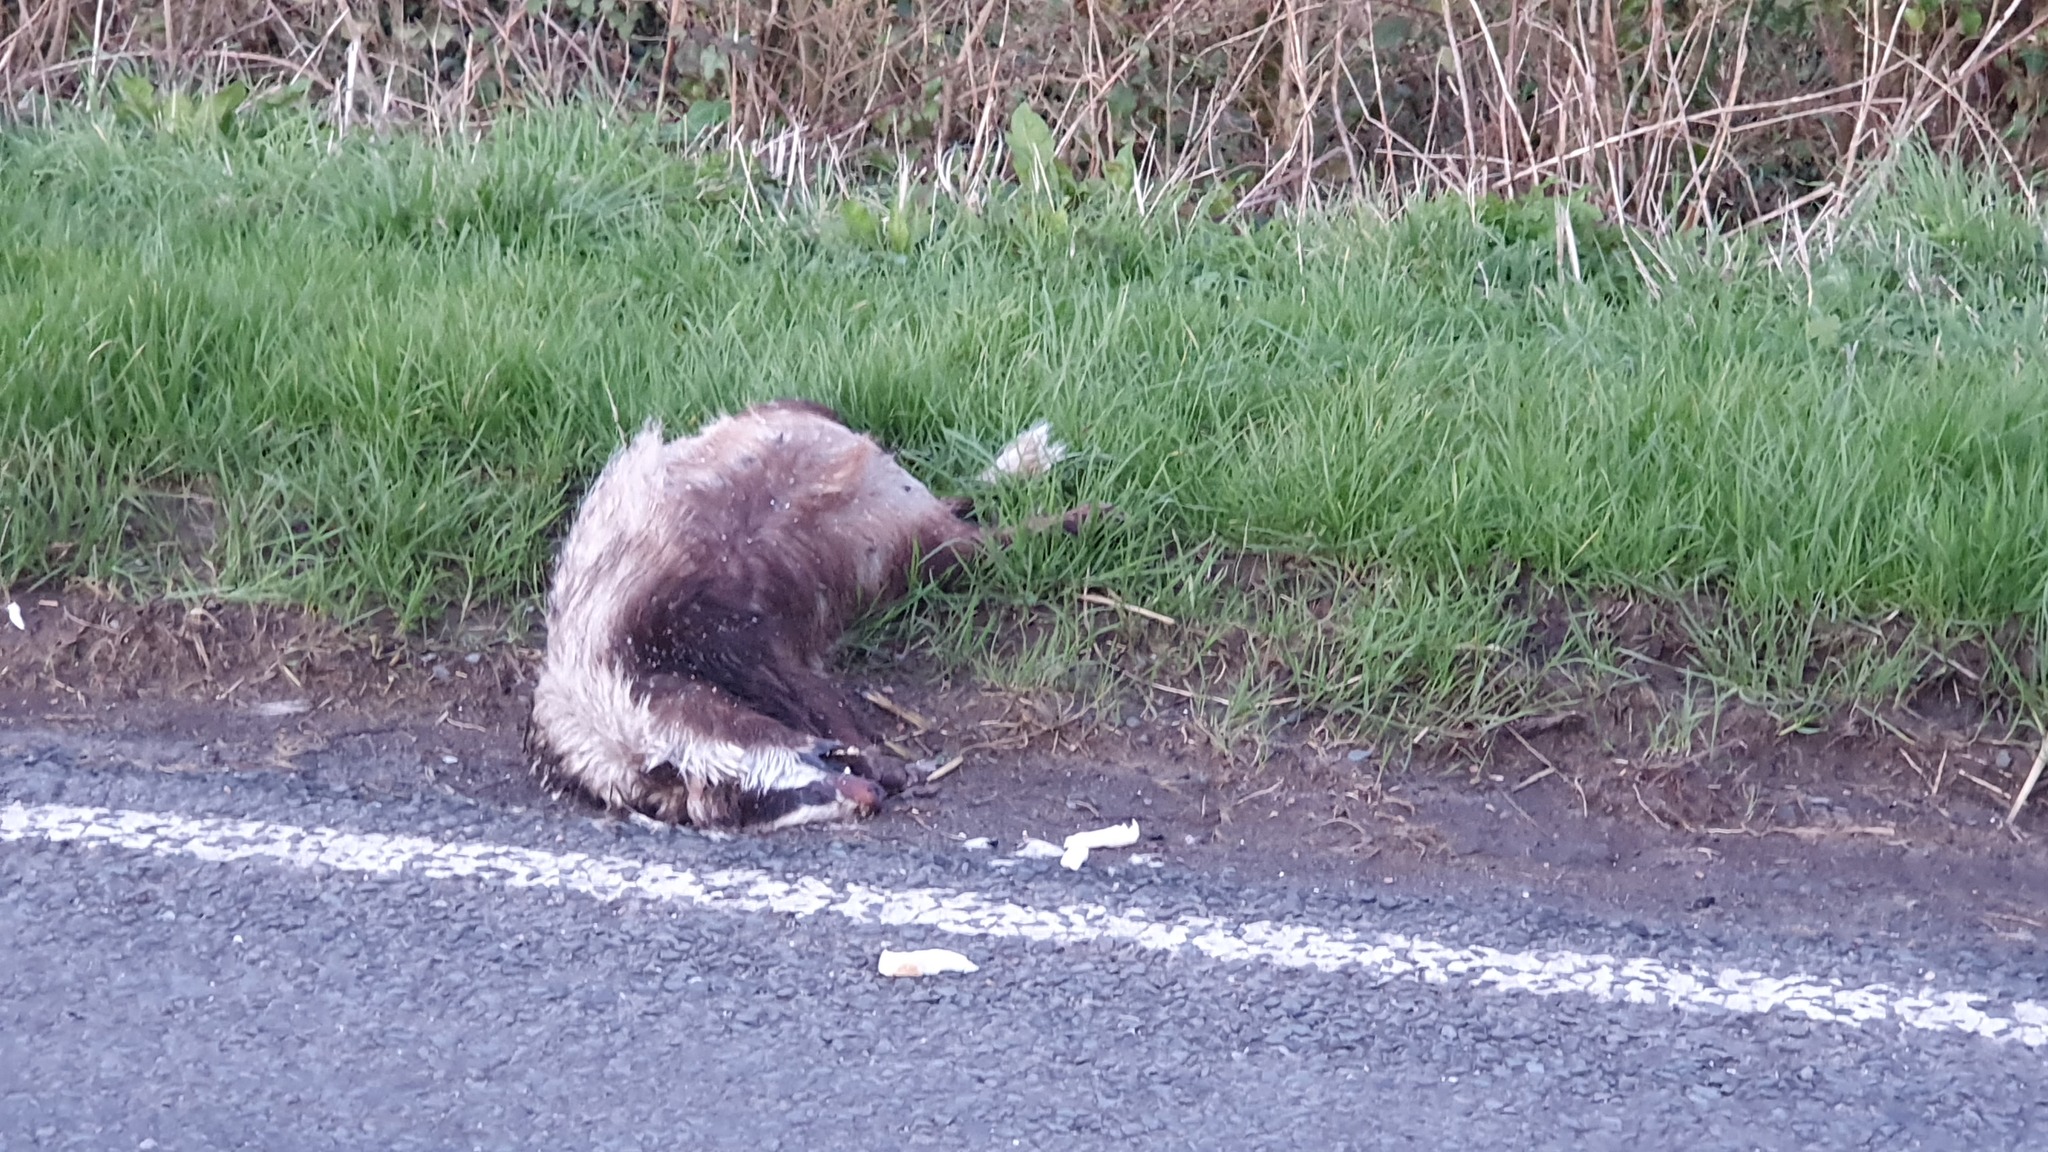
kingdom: Animalia
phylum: Chordata
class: Mammalia
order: Carnivora
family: Mustelidae
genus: Meles
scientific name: Meles meles
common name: Eurasian badger
